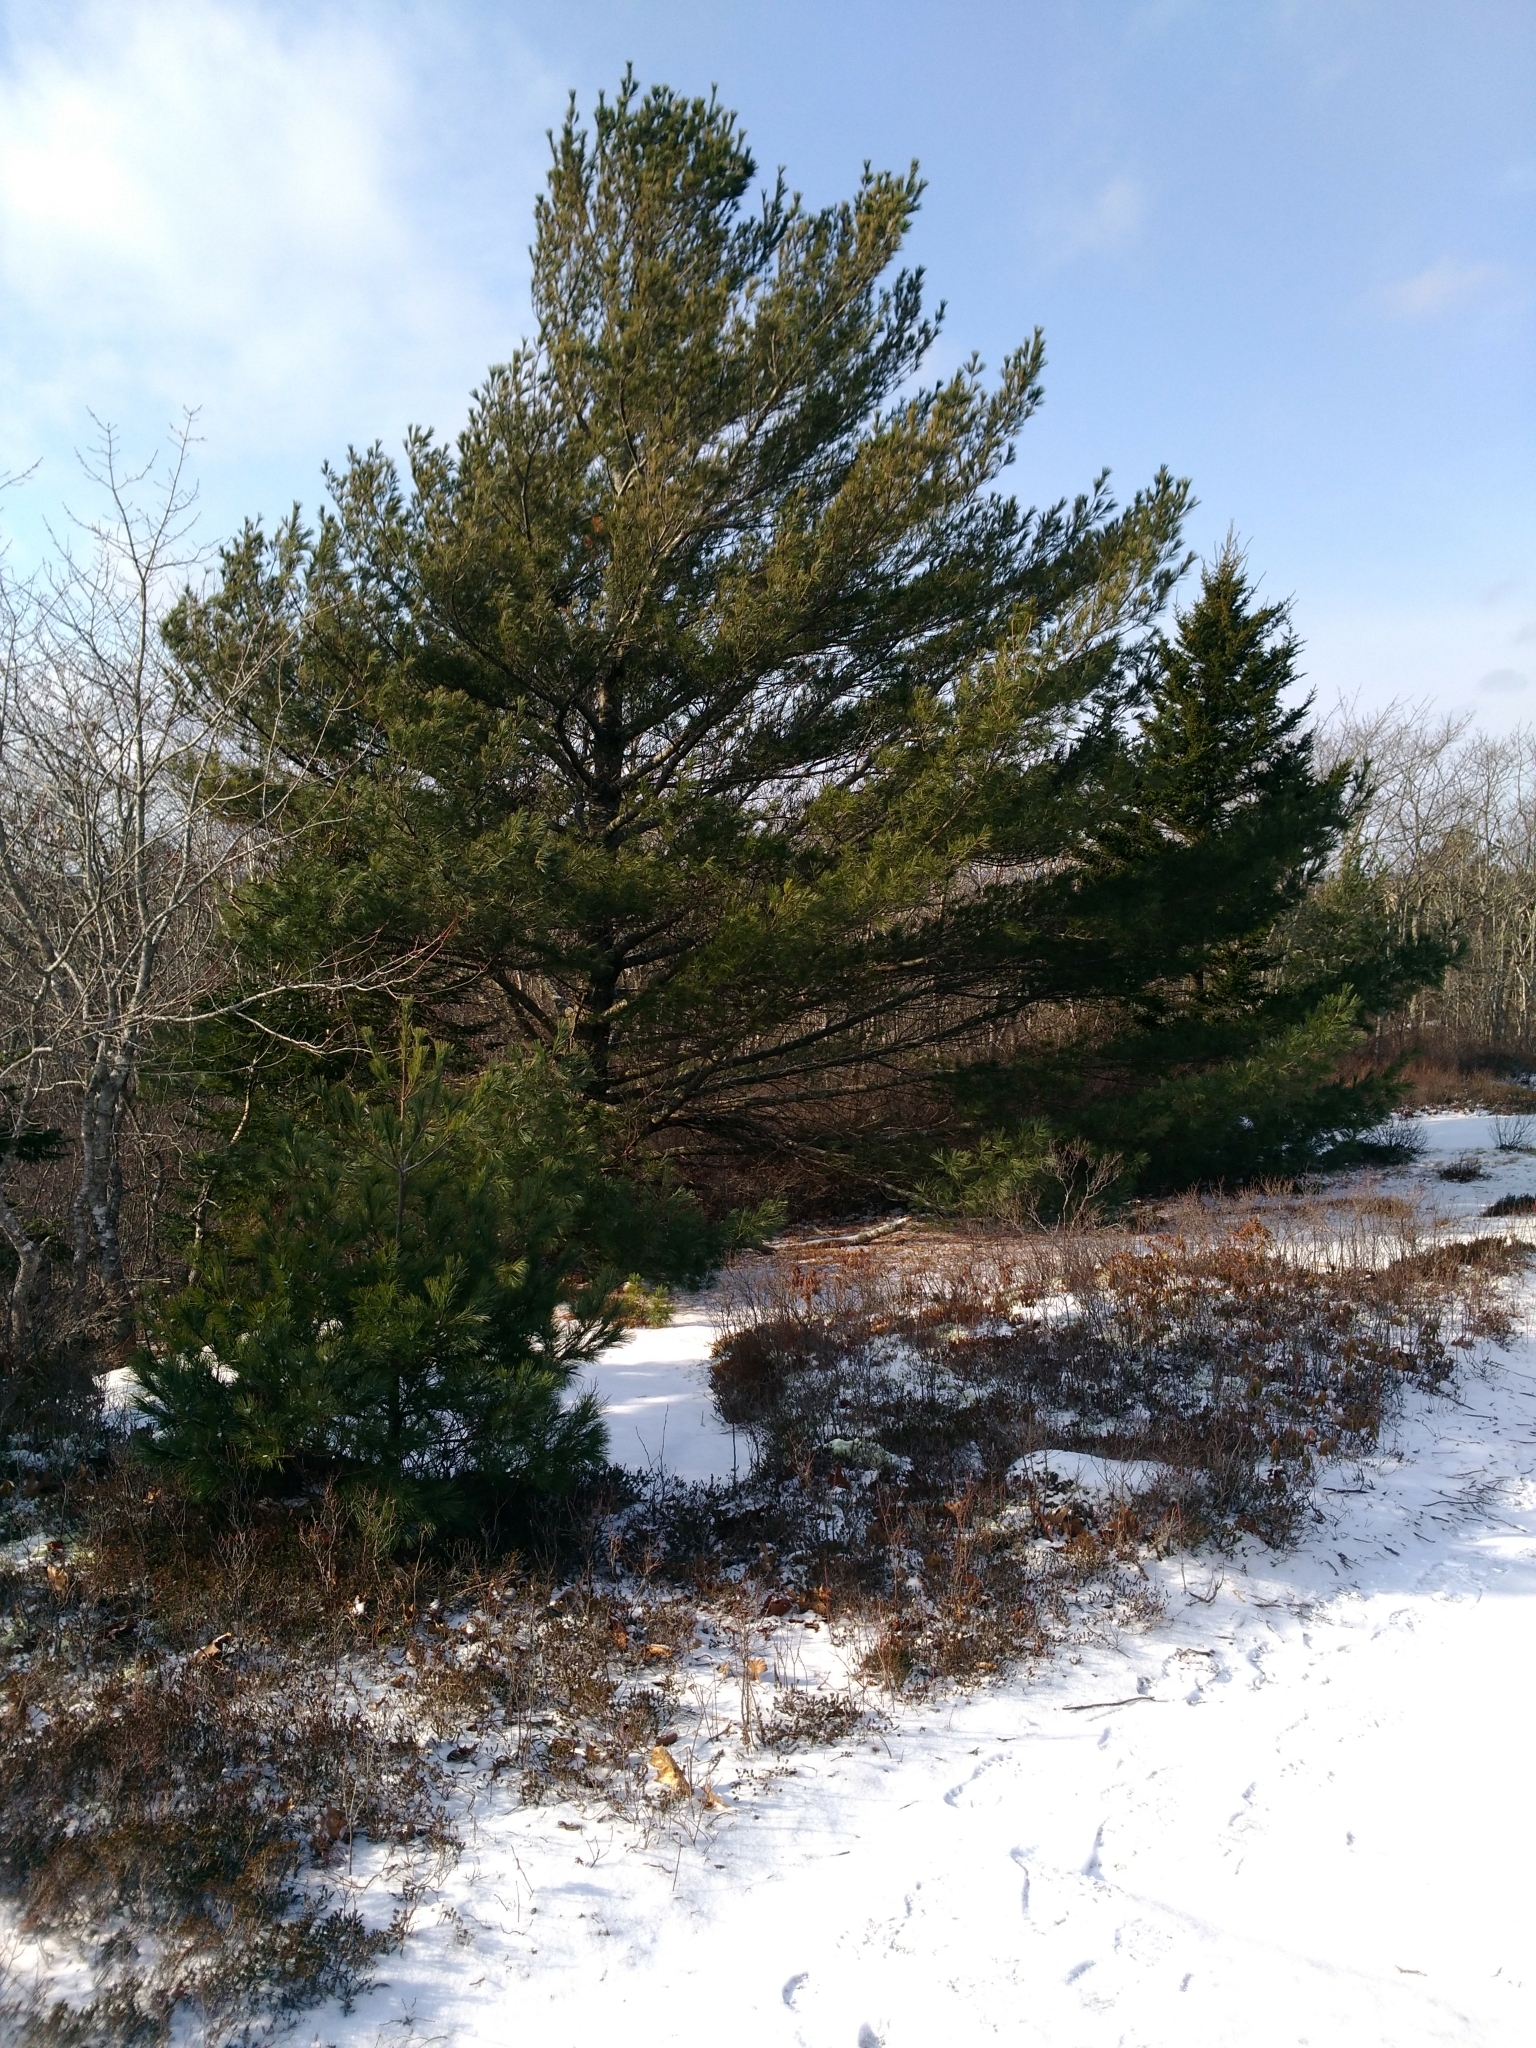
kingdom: Plantae
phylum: Tracheophyta
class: Pinopsida
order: Pinales
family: Pinaceae
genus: Pinus
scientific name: Pinus strobus
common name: Weymouth pine
